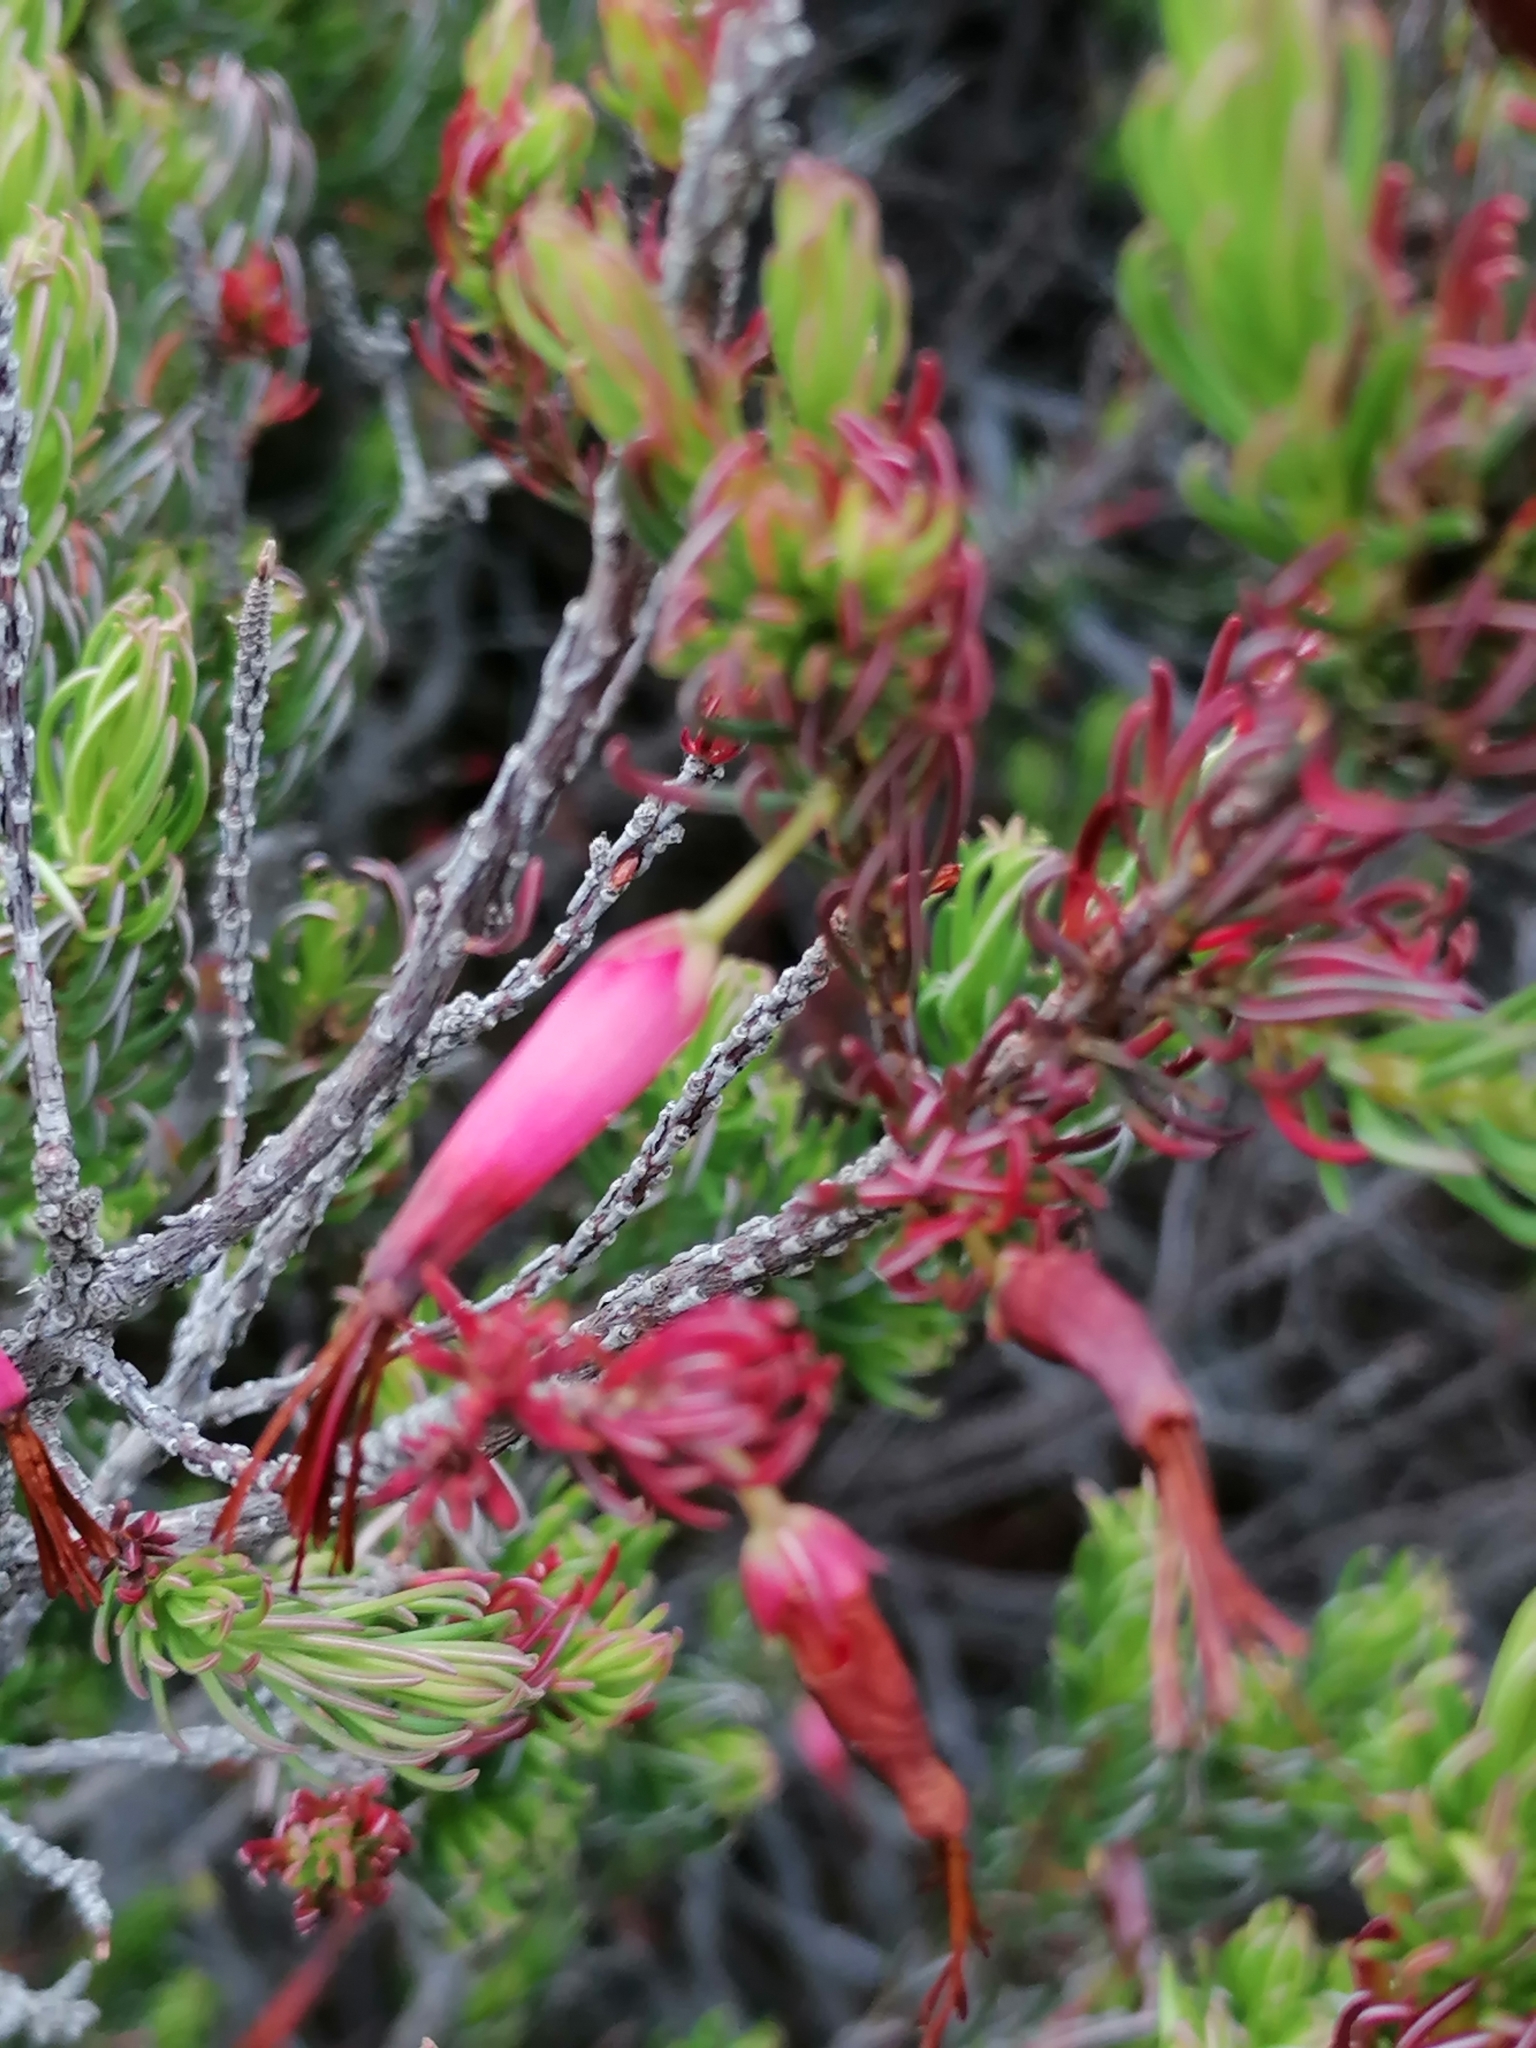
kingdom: Plantae
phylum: Tracheophyta
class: Magnoliopsida
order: Ericales
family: Ericaceae
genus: Erica
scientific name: Erica plukenetii
